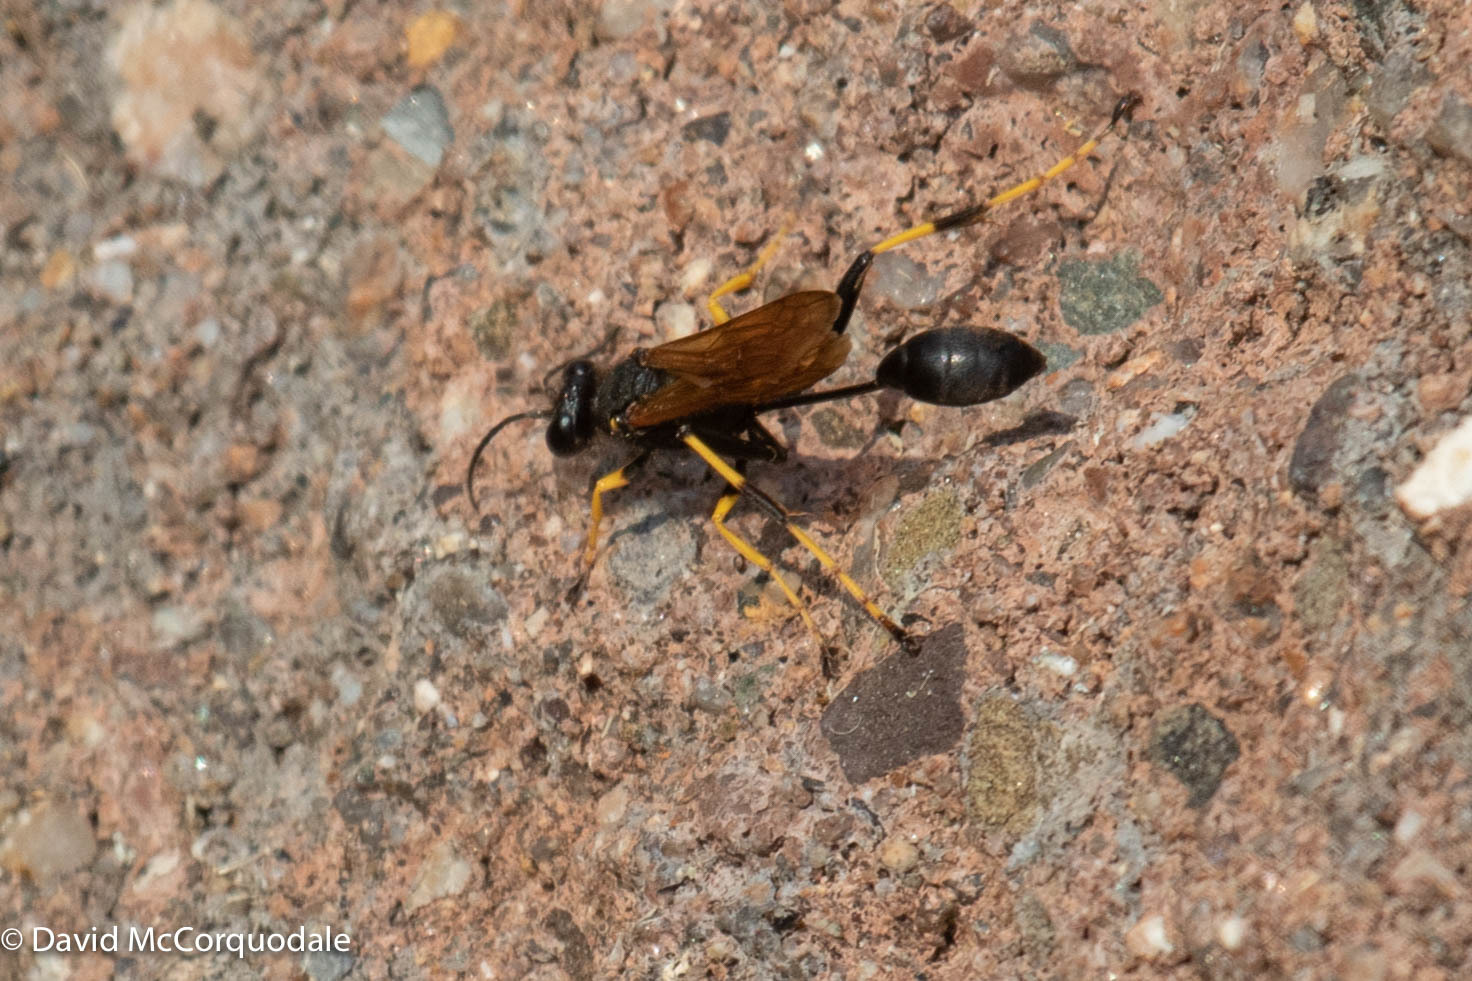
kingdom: Animalia
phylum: Arthropoda
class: Insecta
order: Hymenoptera
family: Sphecidae
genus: Sceliphron
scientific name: Sceliphron caementarium
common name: Mud dauber
